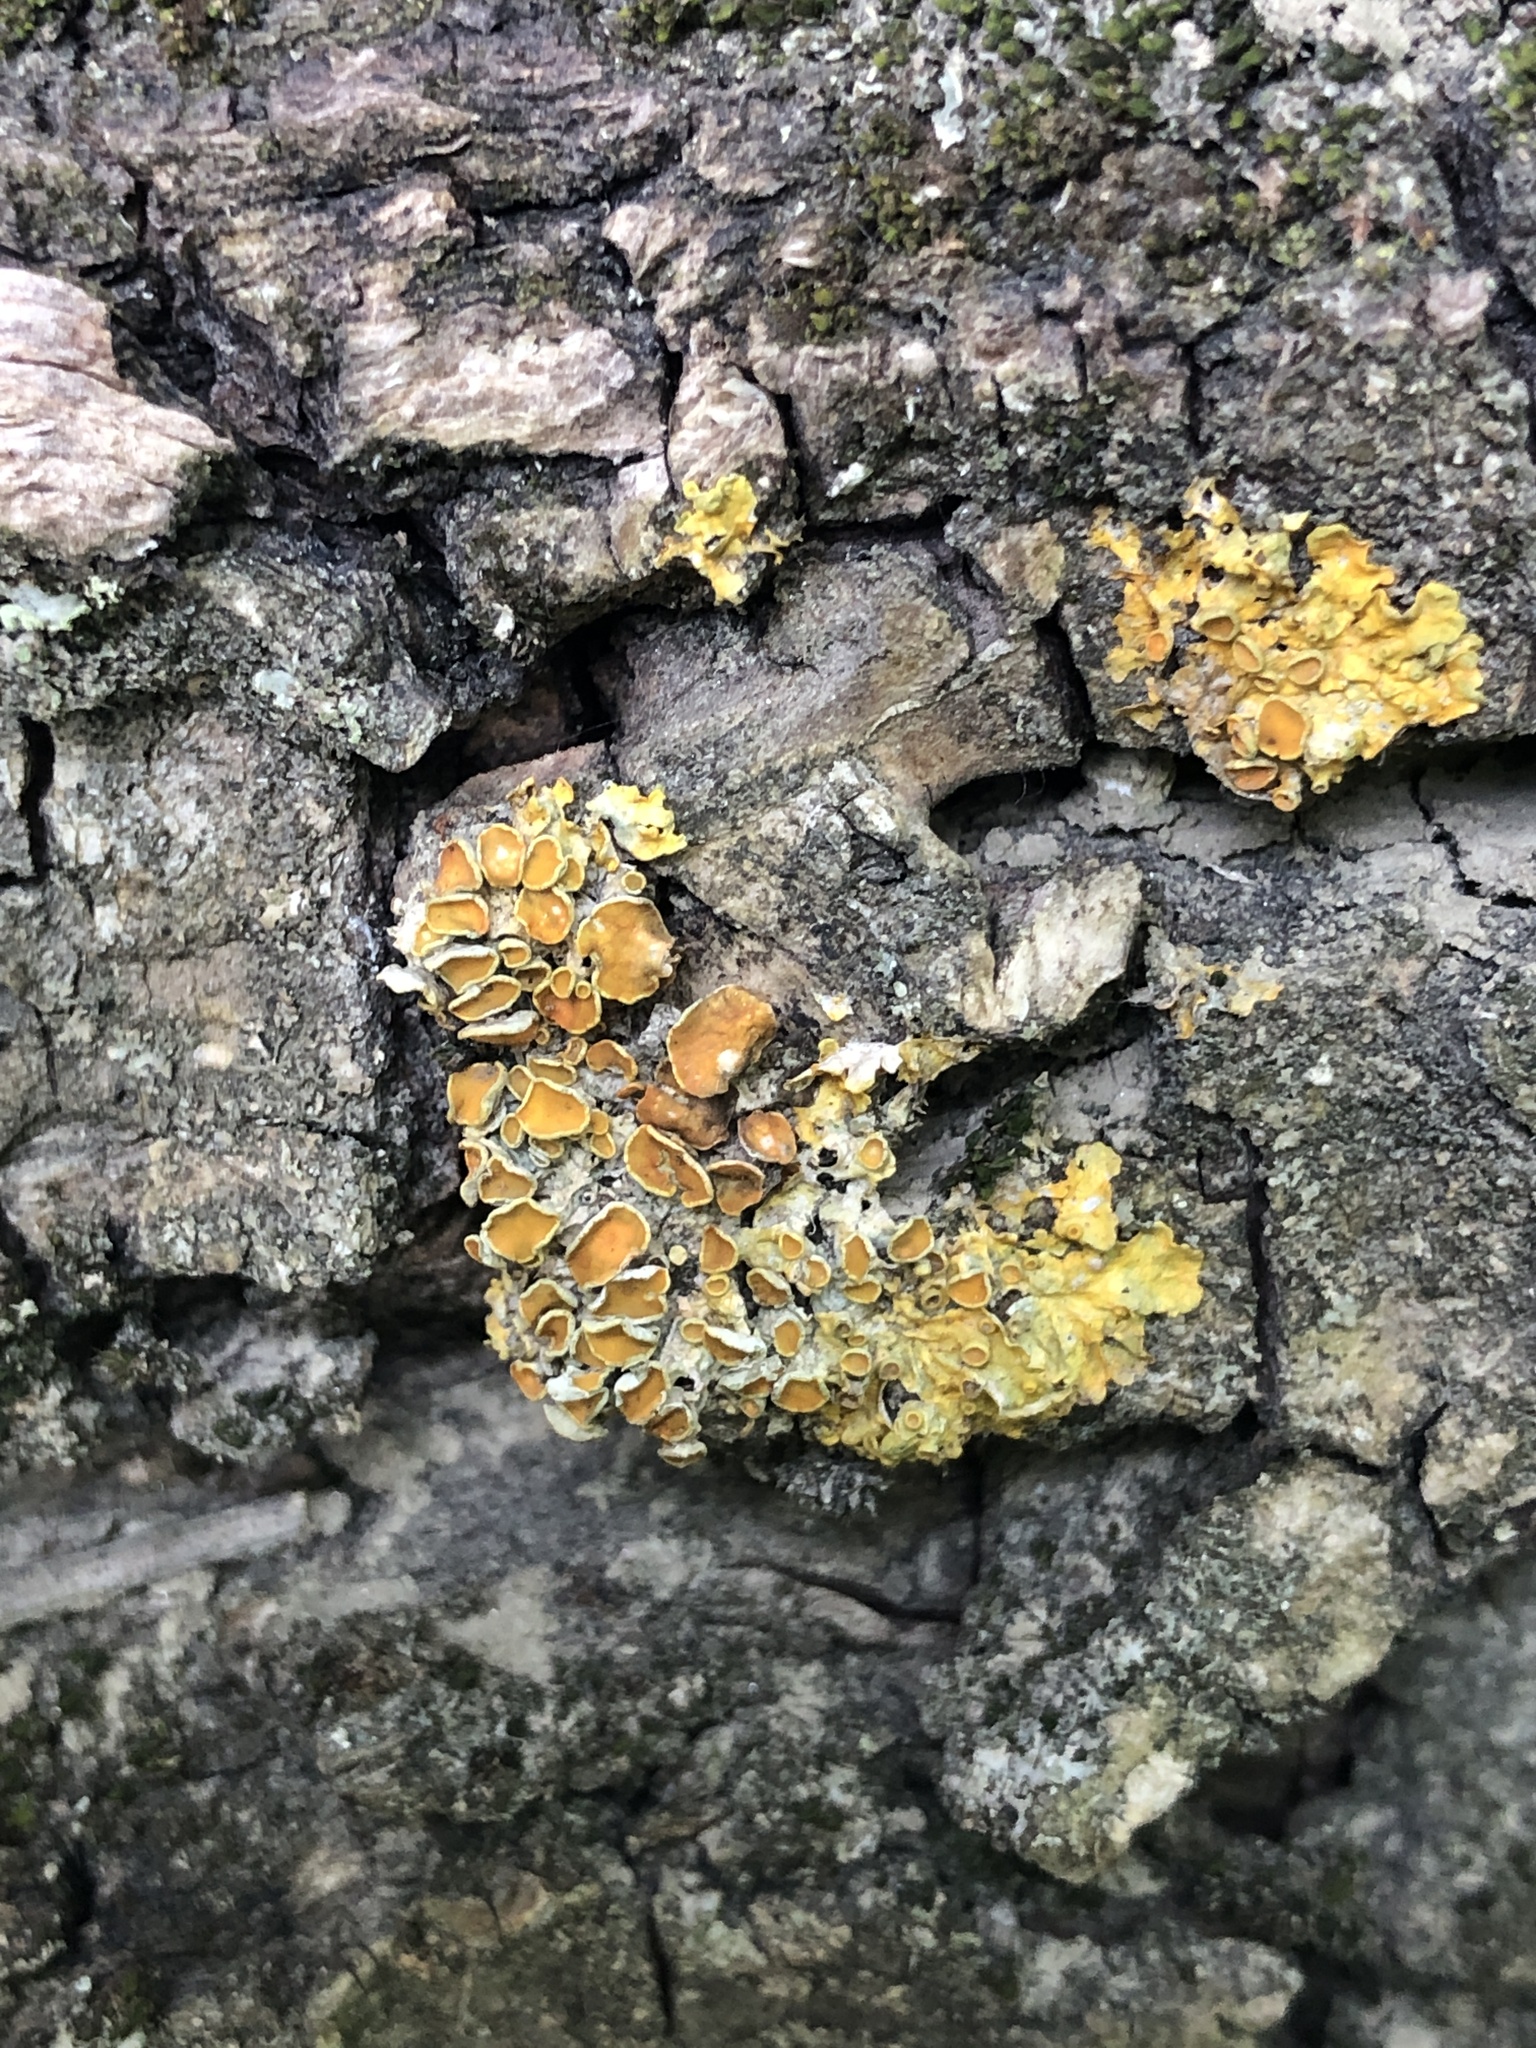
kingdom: Fungi
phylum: Ascomycota
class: Lecanoromycetes
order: Teloschistales
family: Teloschistaceae
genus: Xanthoria
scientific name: Xanthoria parietina
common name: Common orange lichen
